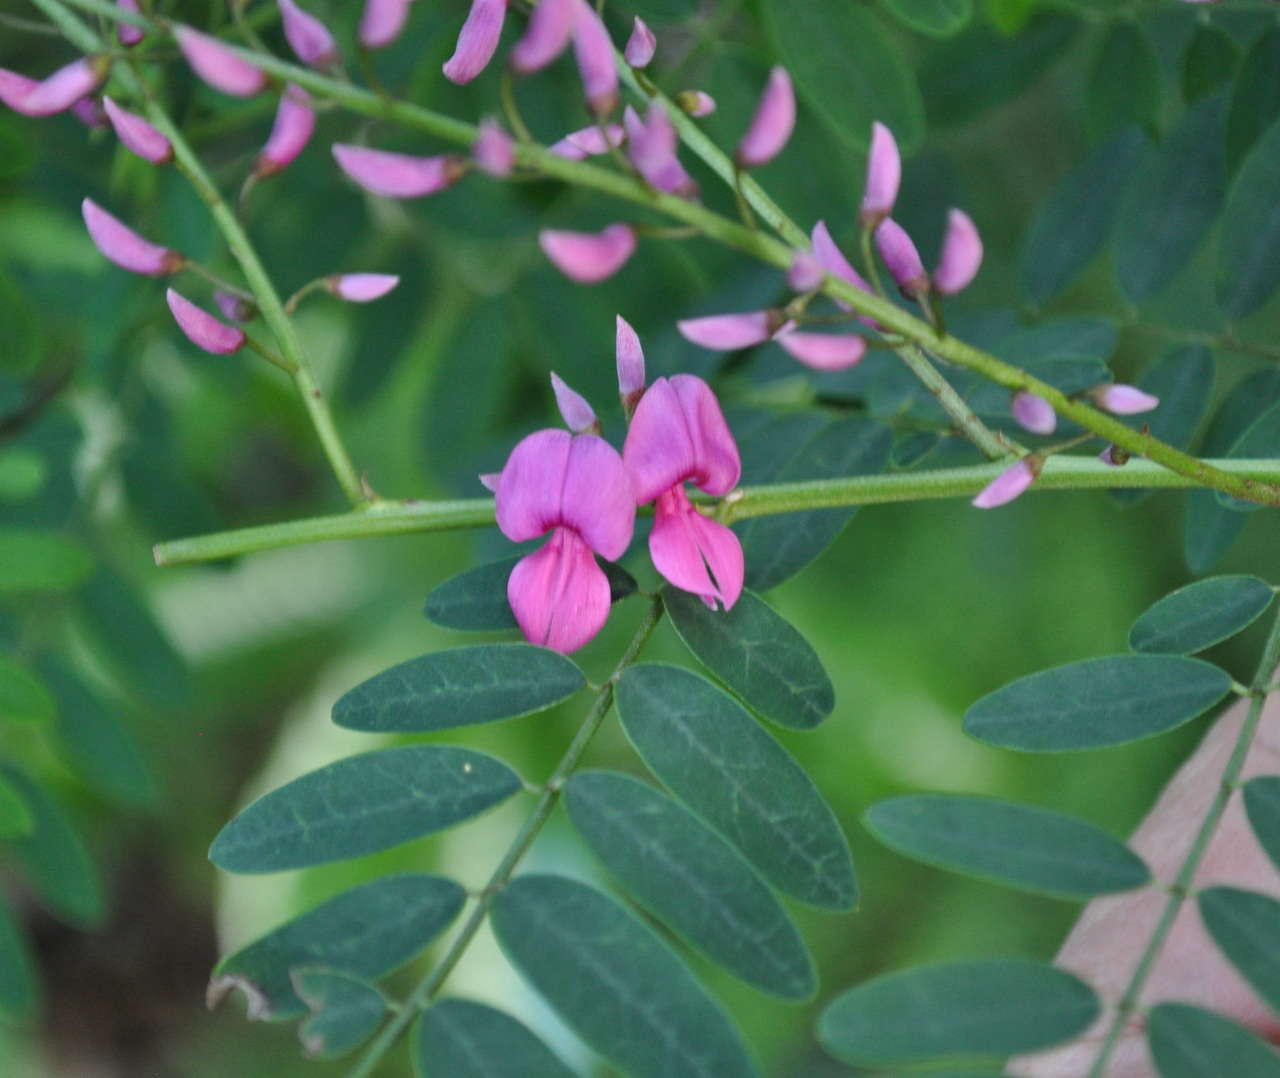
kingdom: Plantae
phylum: Tracheophyta
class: Magnoliopsida
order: Fabales
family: Fabaceae
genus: Indigofera
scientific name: Indigofera australis
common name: Australian indigo
